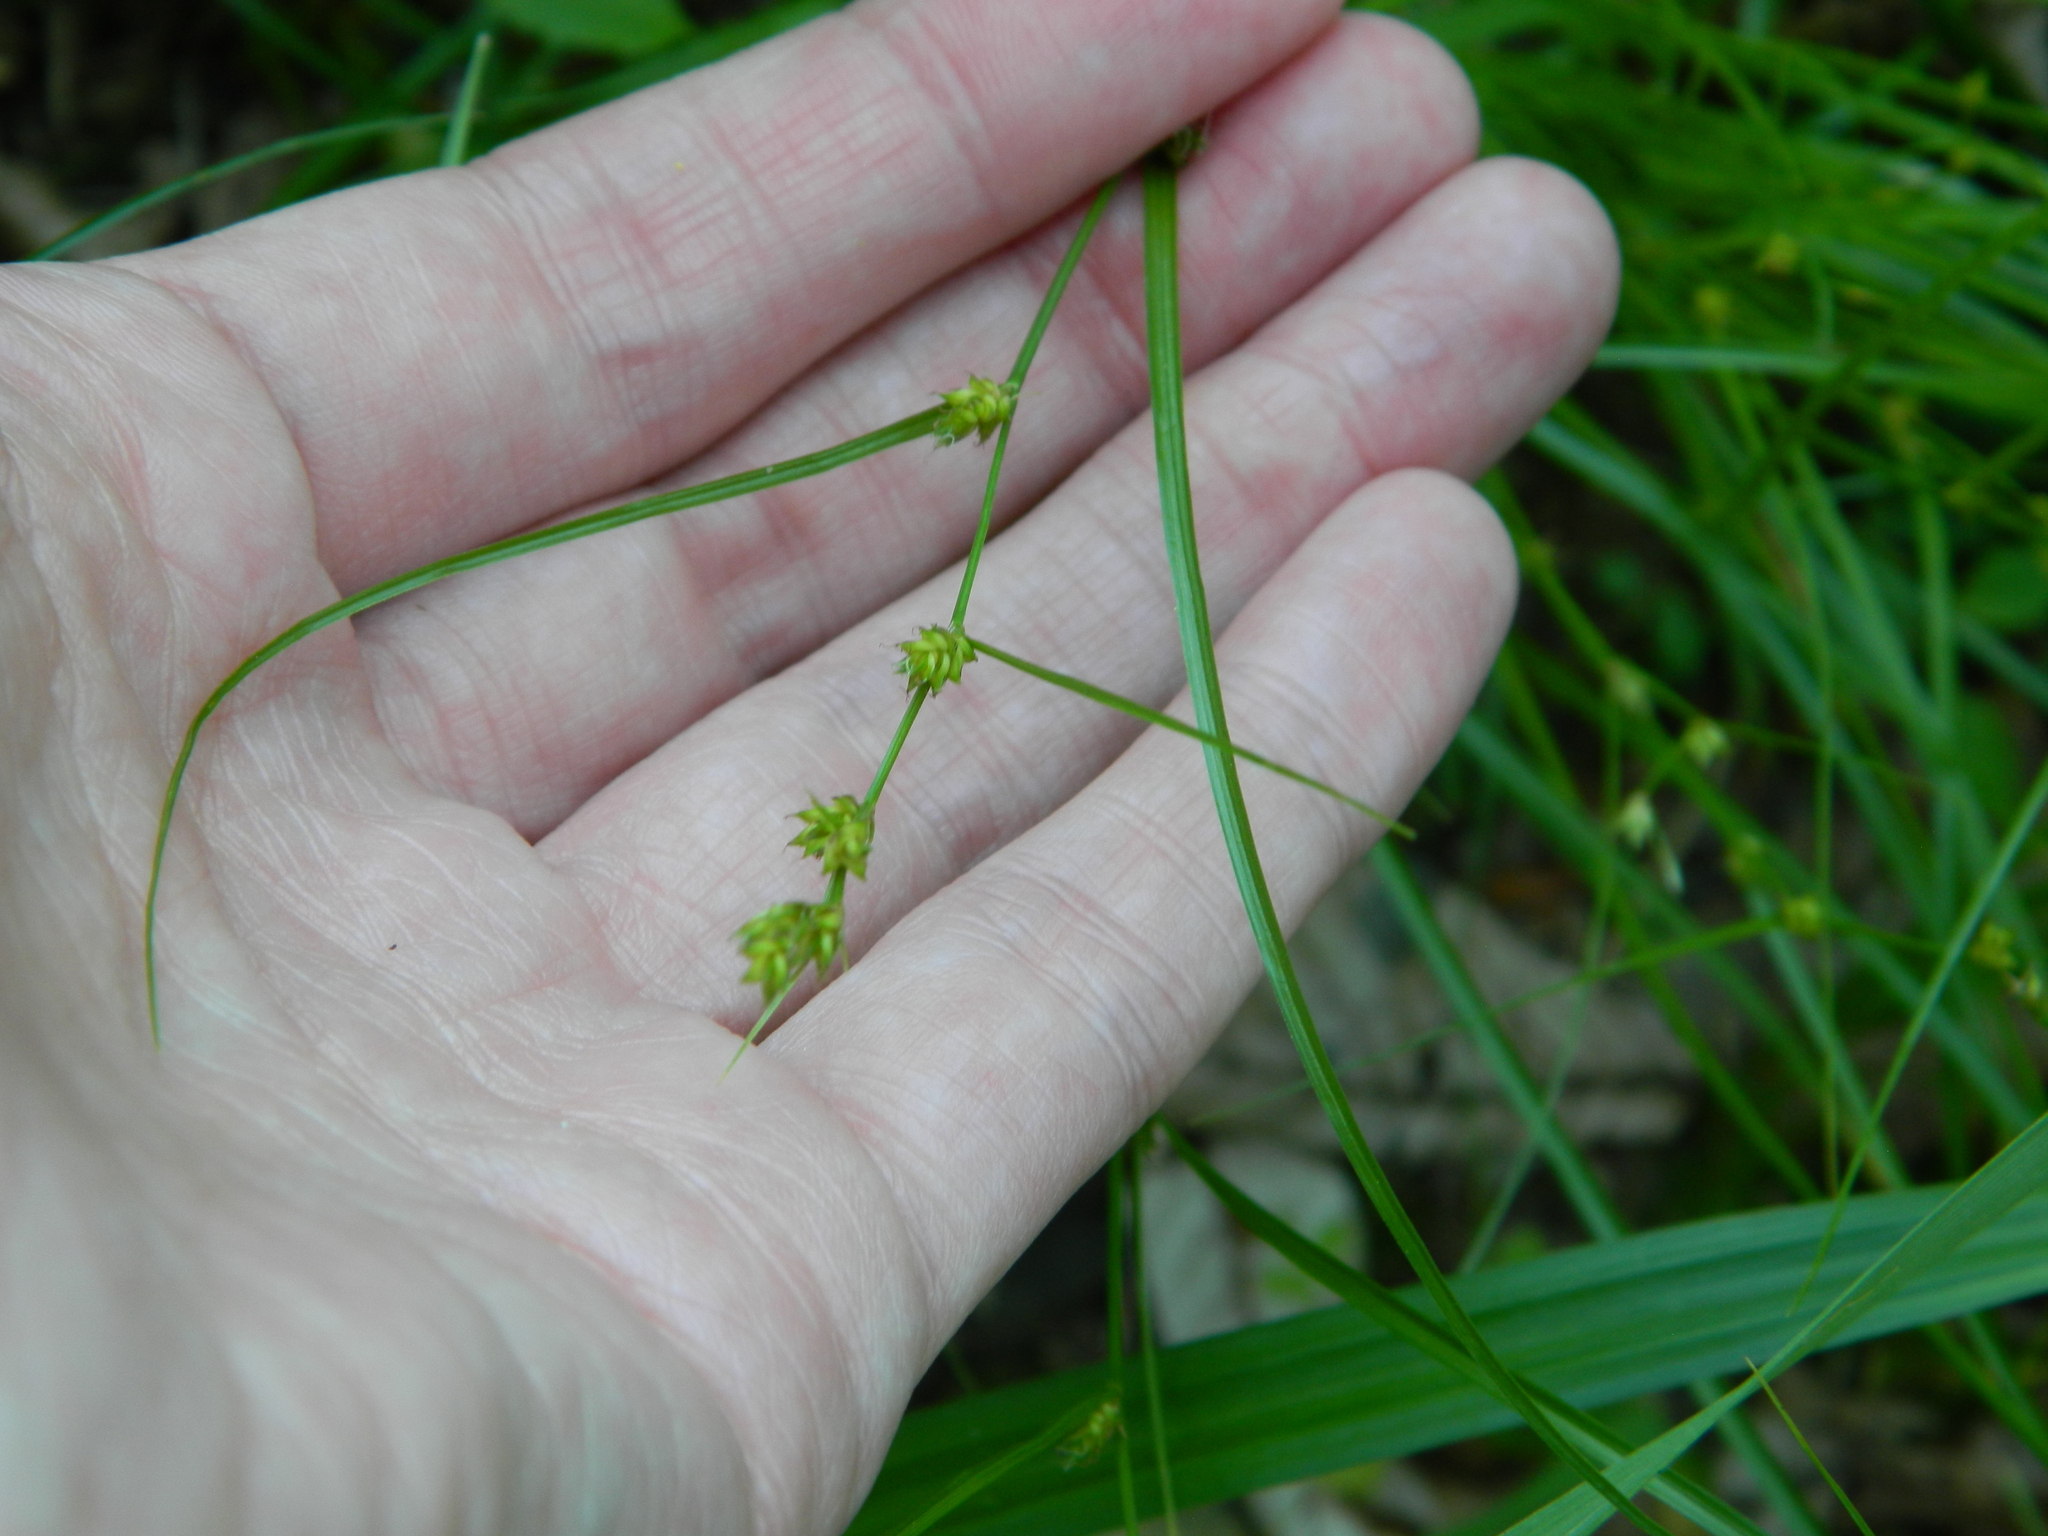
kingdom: Plantae
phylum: Tracheophyta
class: Liliopsida
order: Poales
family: Cyperaceae
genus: Carex
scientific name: Carex remota
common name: Remote sedge
